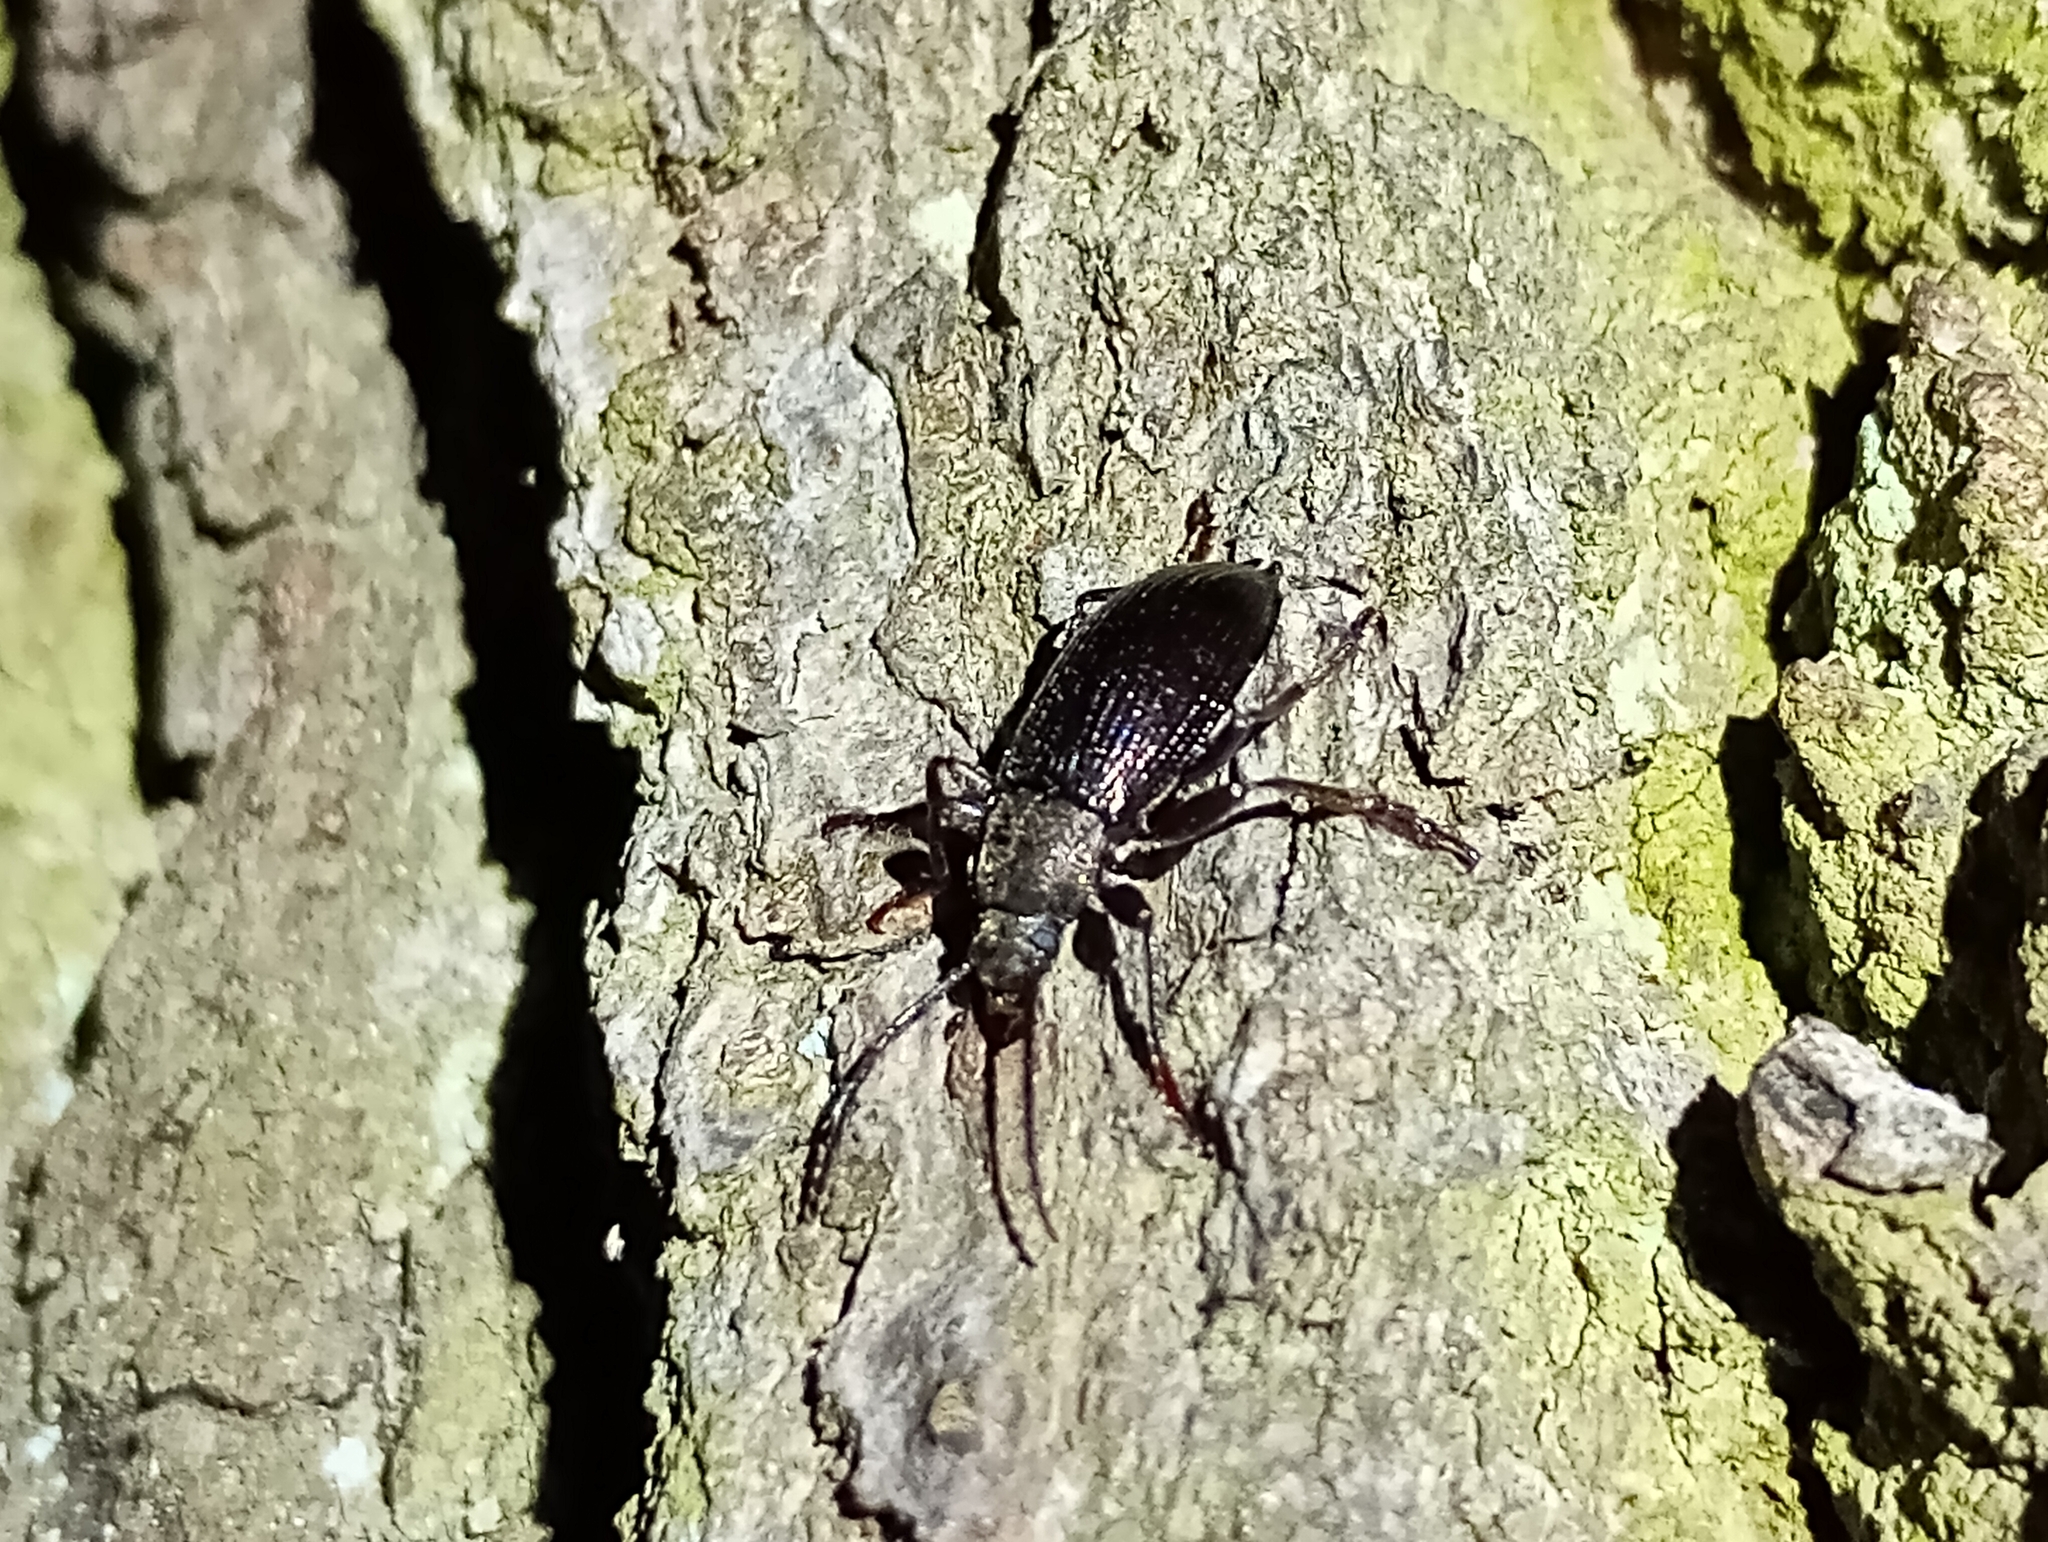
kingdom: Animalia
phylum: Arthropoda
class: Insecta
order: Coleoptera
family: Tenebrionidae
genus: Stenomax
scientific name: Stenomax aeneus
